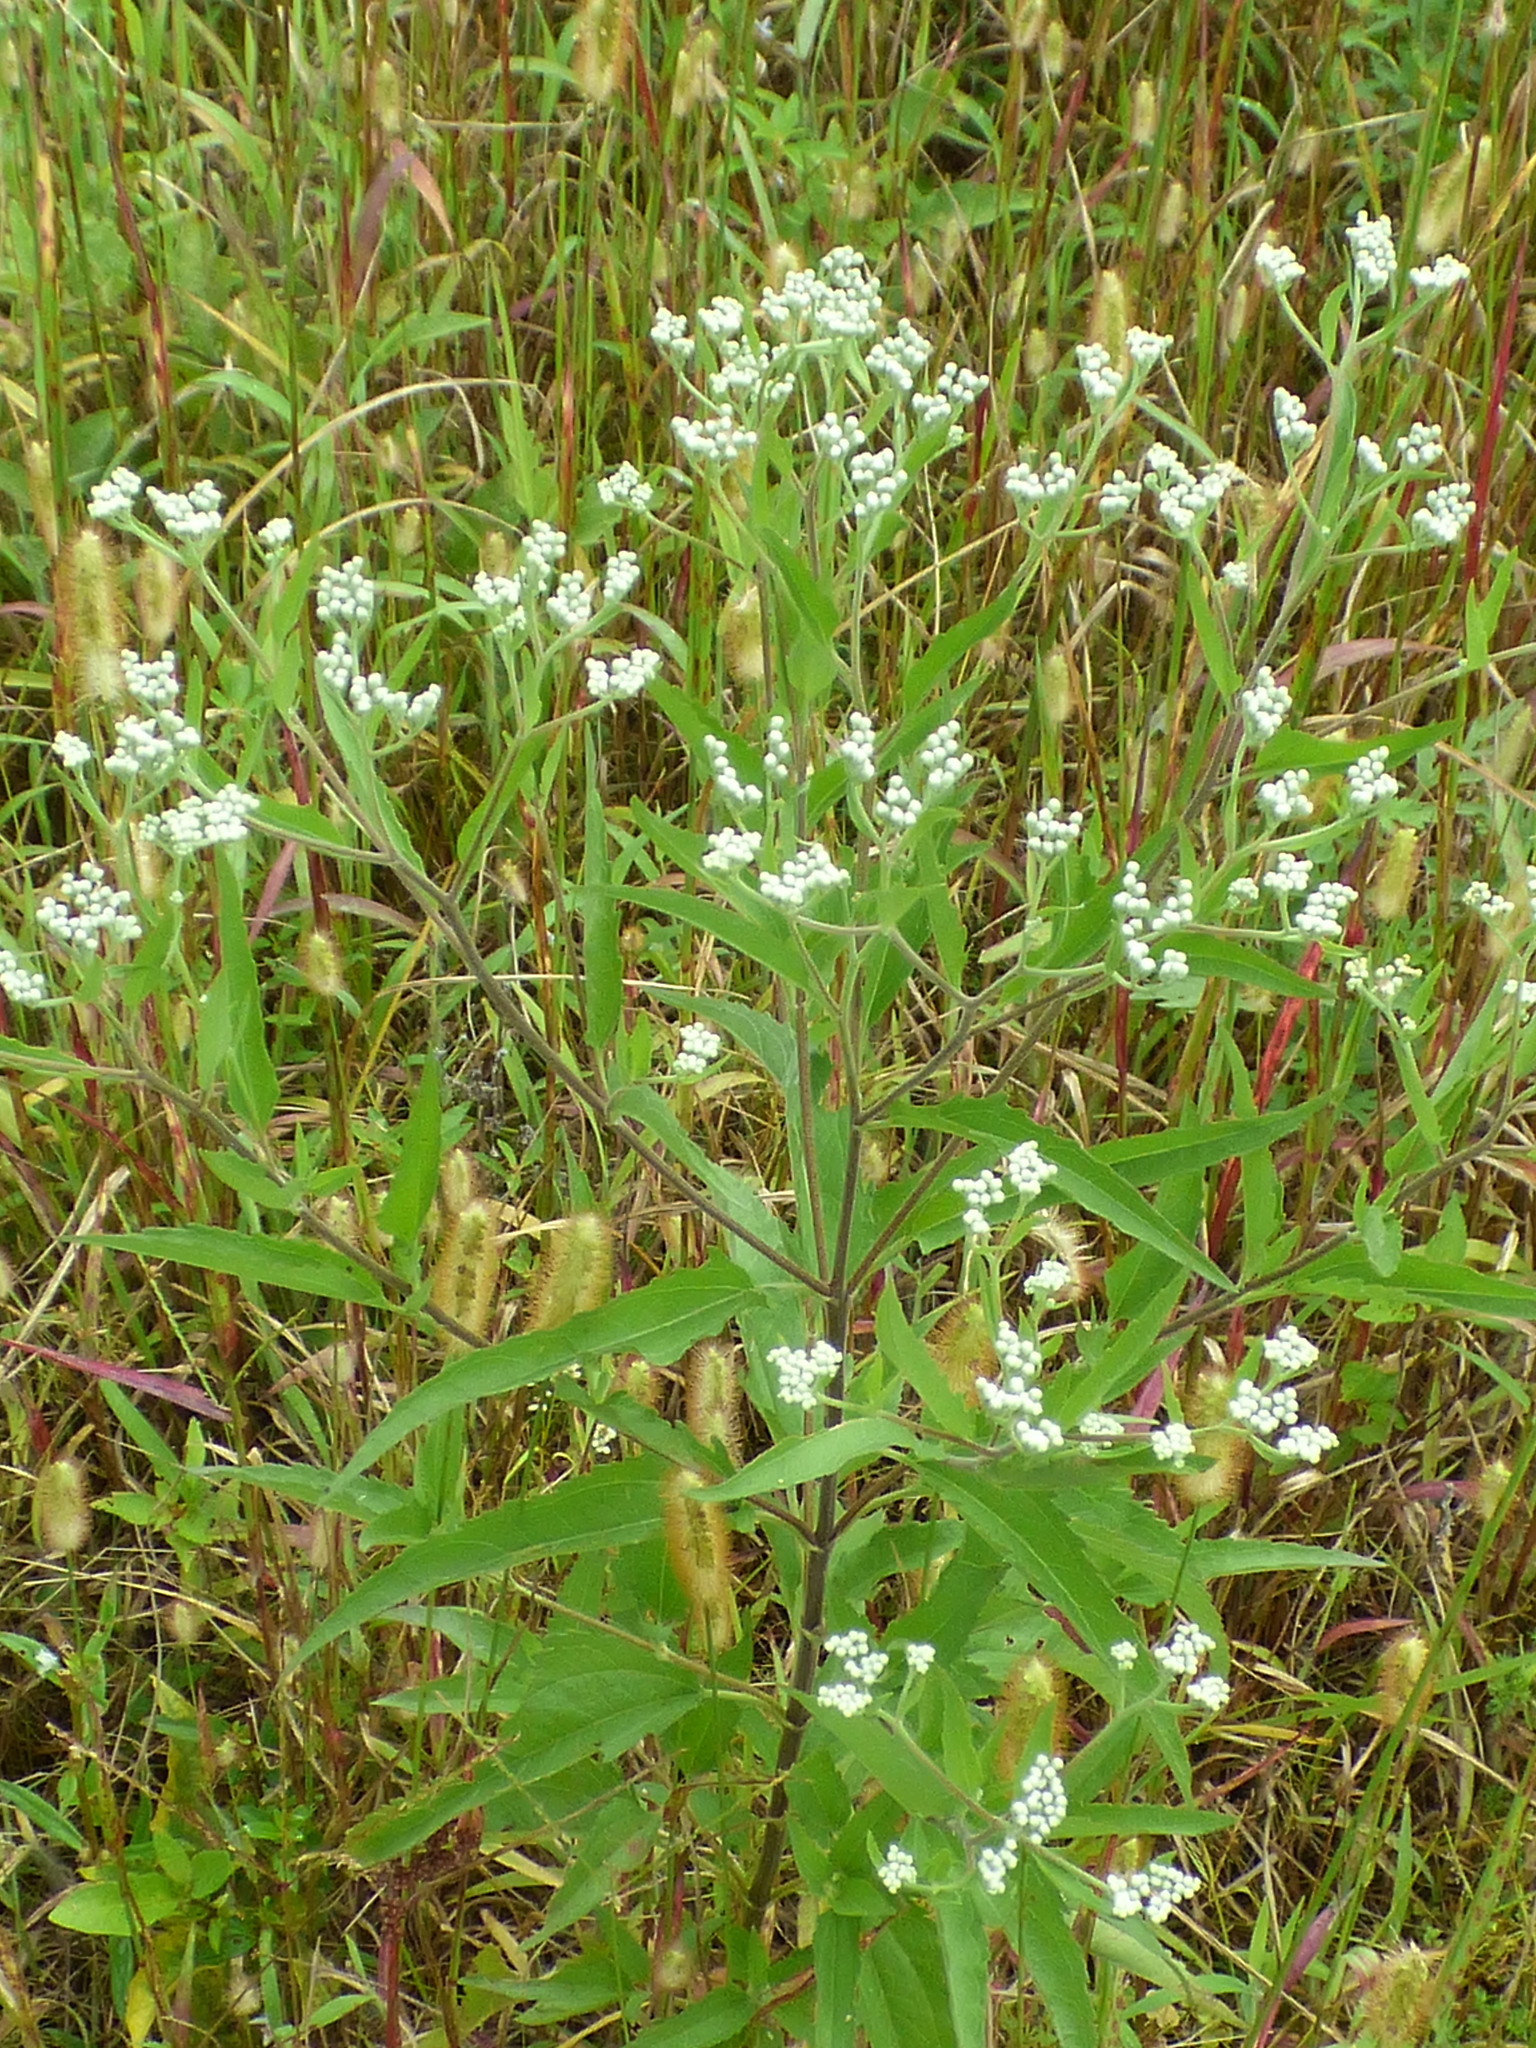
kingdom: Plantae
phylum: Tracheophyta
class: Magnoliopsida
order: Asterales
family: Asteraceae
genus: Eupatorium
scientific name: Eupatorium serotinum
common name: Late boneset
